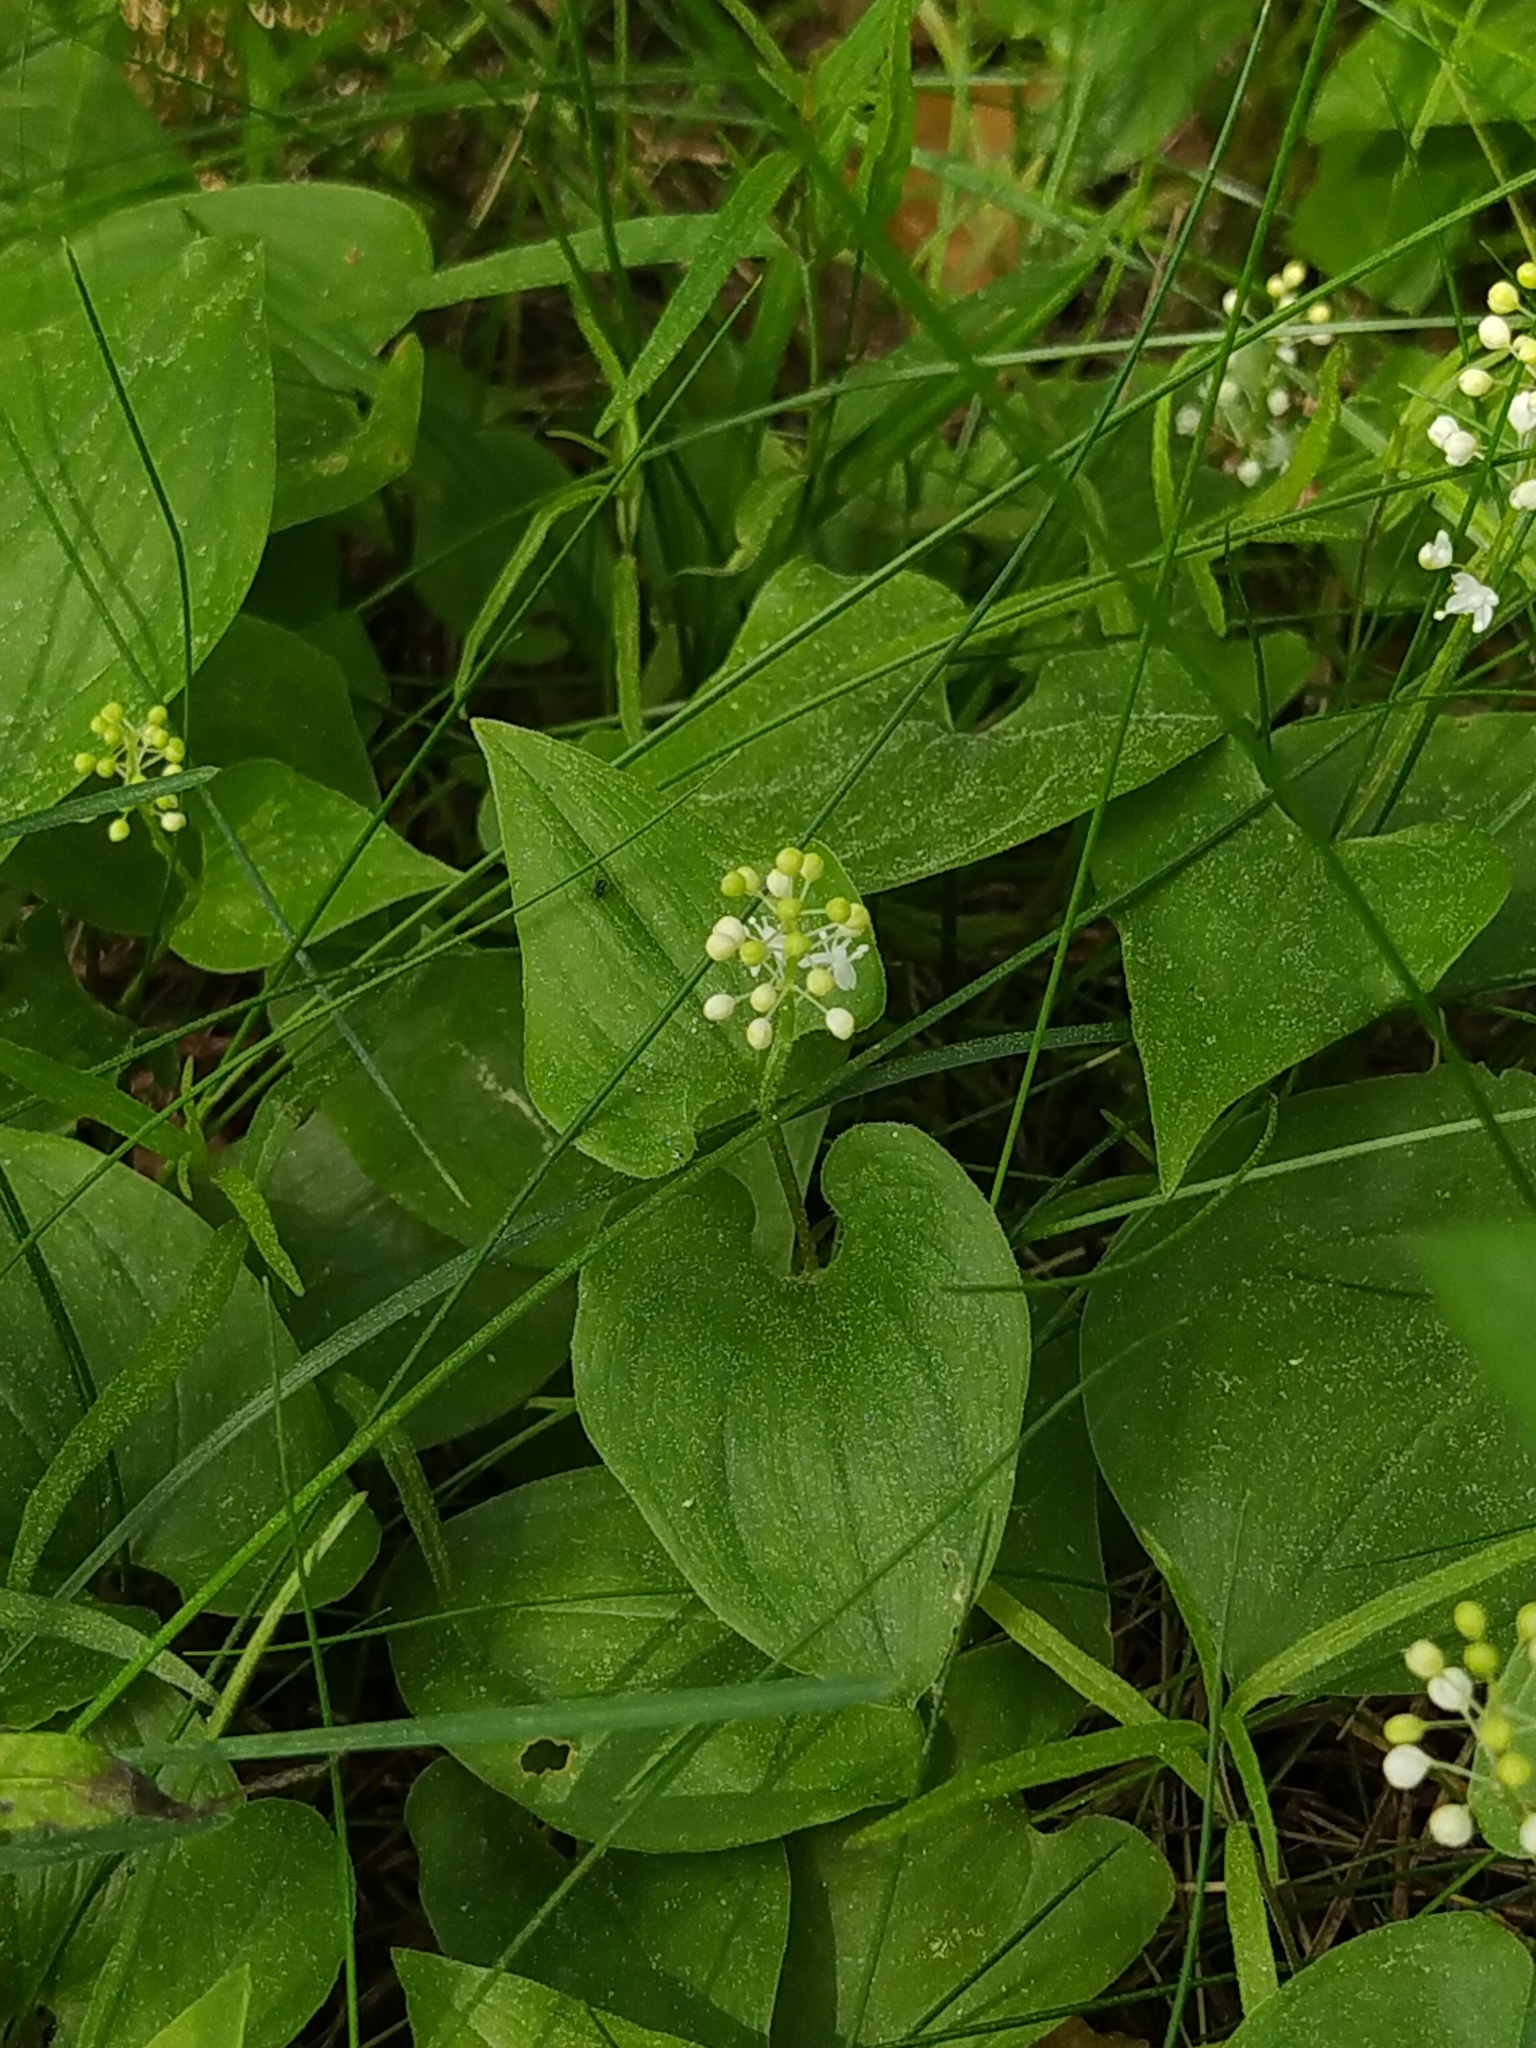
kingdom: Plantae
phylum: Tracheophyta
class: Liliopsida
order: Asparagales
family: Asparagaceae
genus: Maianthemum
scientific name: Maianthemum bifolium
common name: May lily
